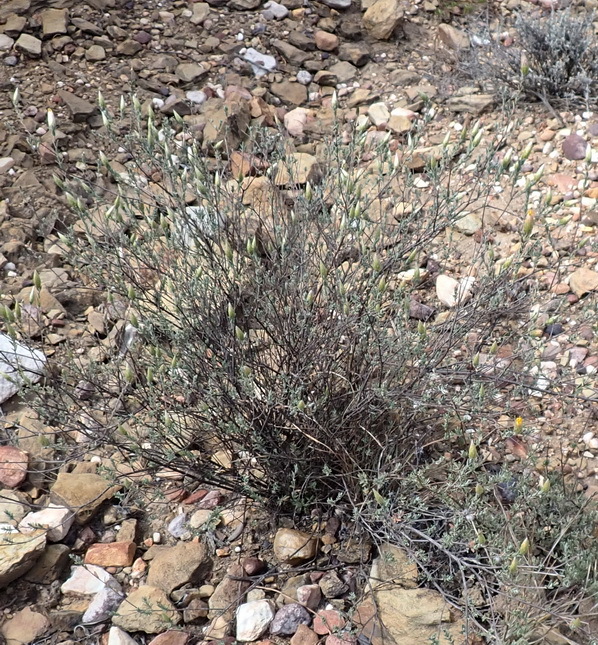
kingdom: Plantae
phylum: Tracheophyta
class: Magnoliopsida
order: Asterales
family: Asteraceae
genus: Pteronia
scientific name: Pteronia membranacea
